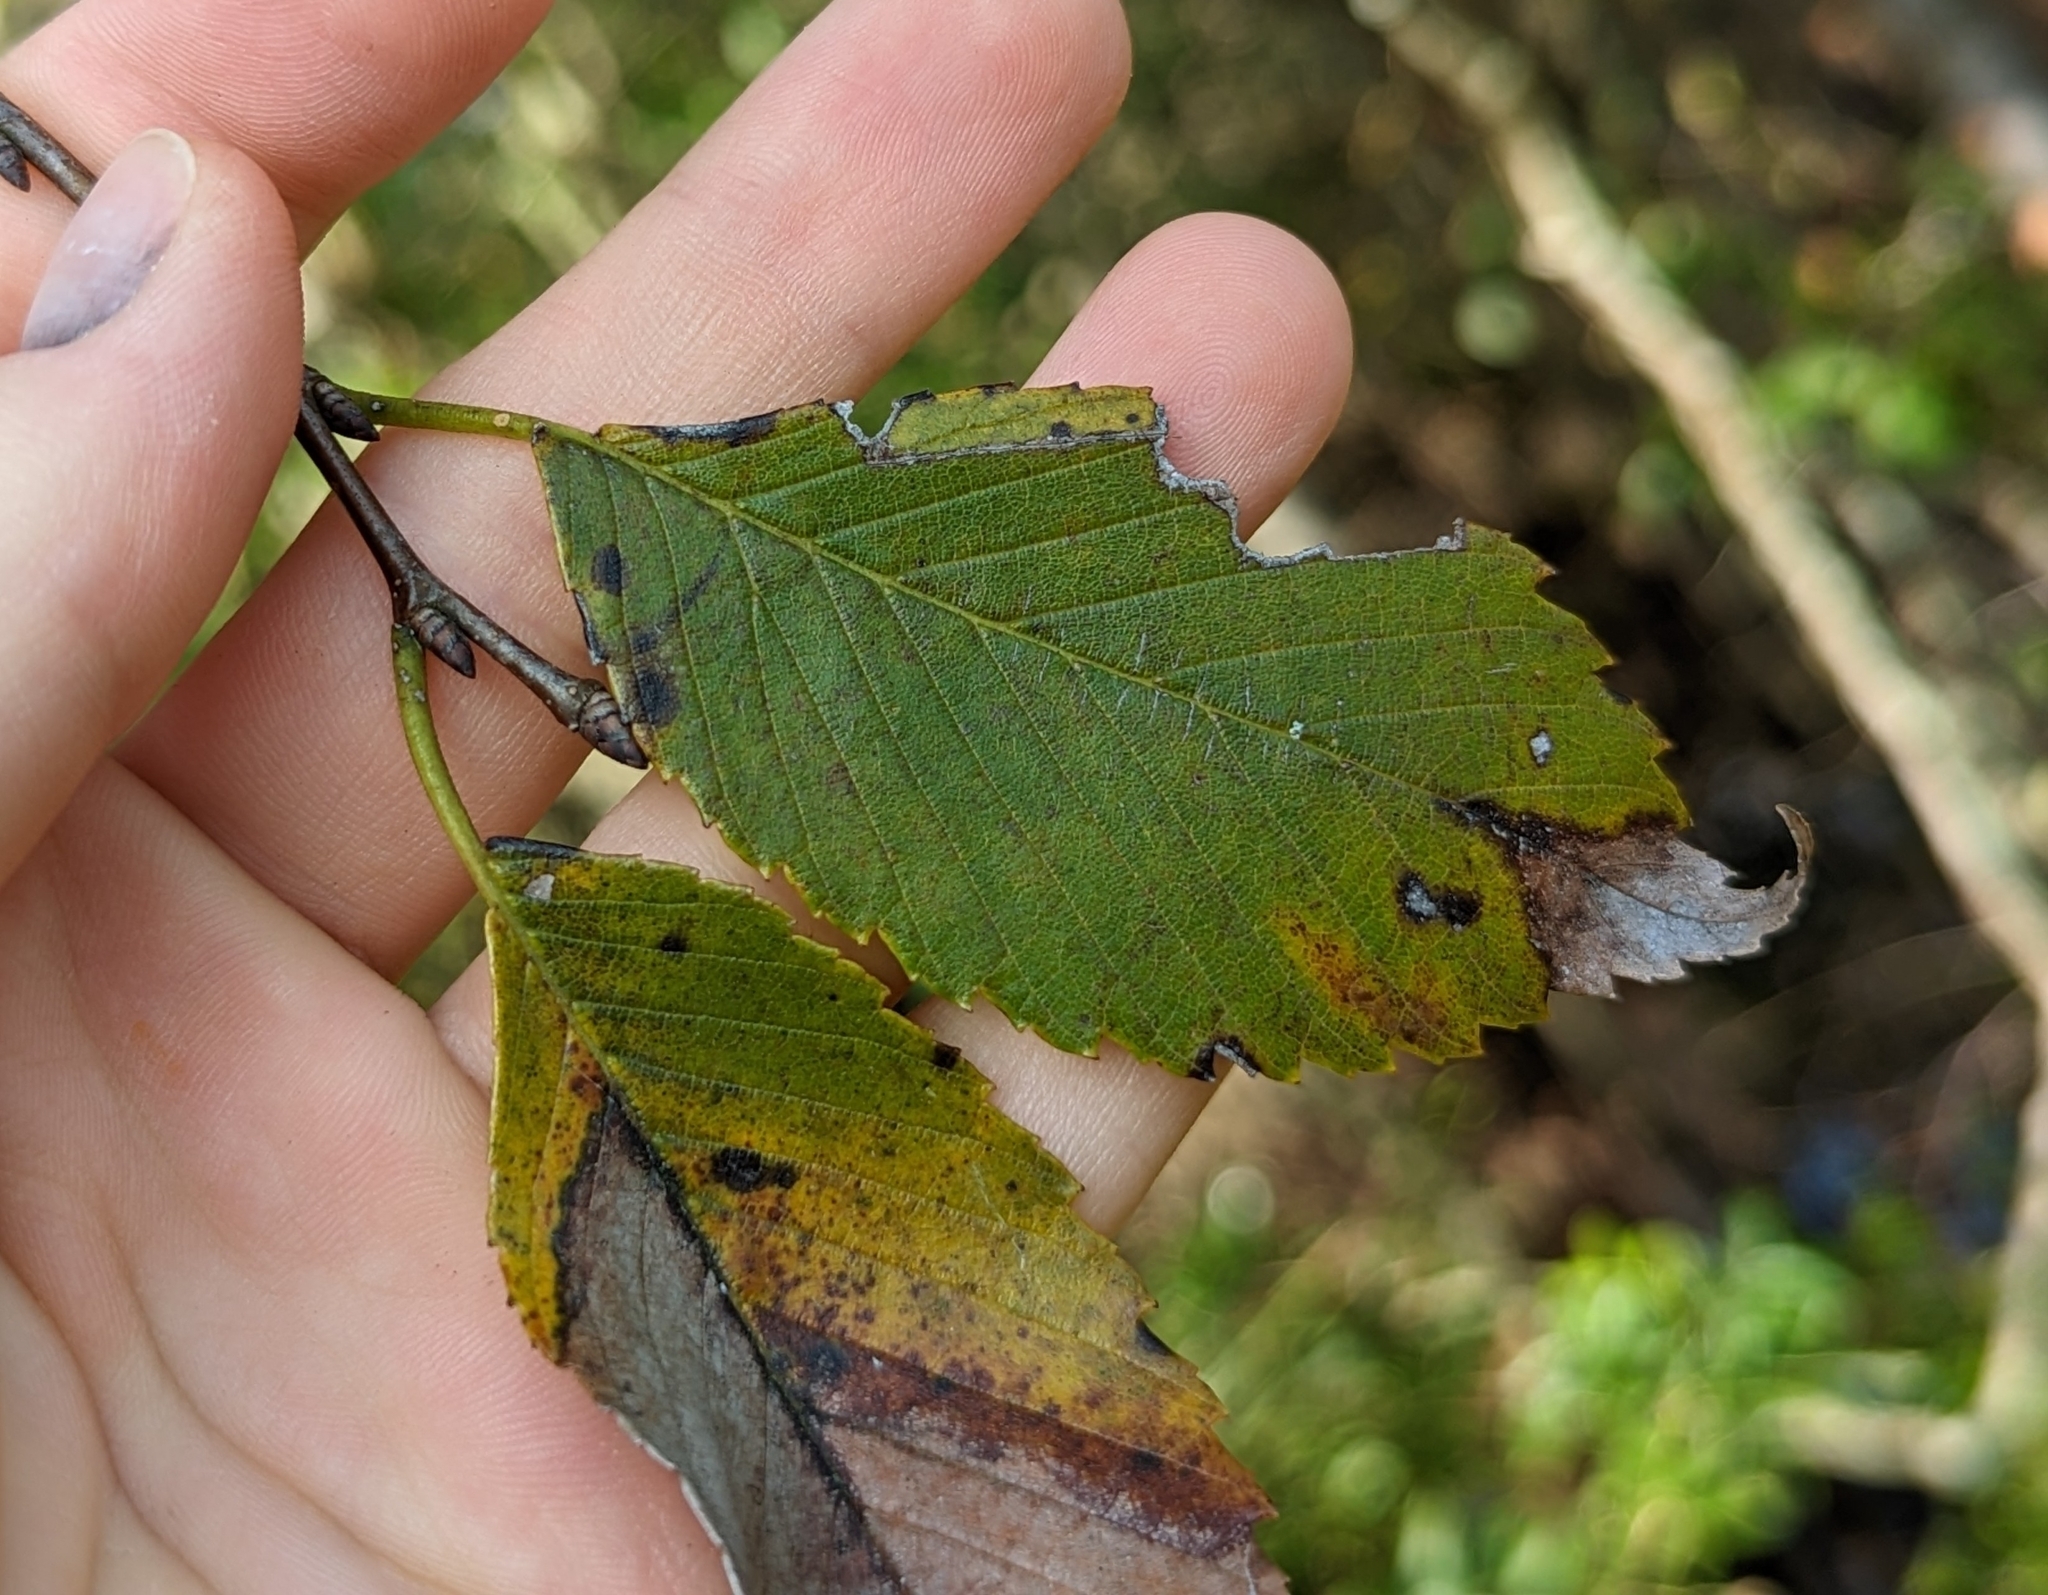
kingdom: Plantae
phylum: Tracheophyta
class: Magnoliopsida
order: Rosales
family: Ulmaceae
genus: Ulmus
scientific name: Ulmus americana
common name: American elm
